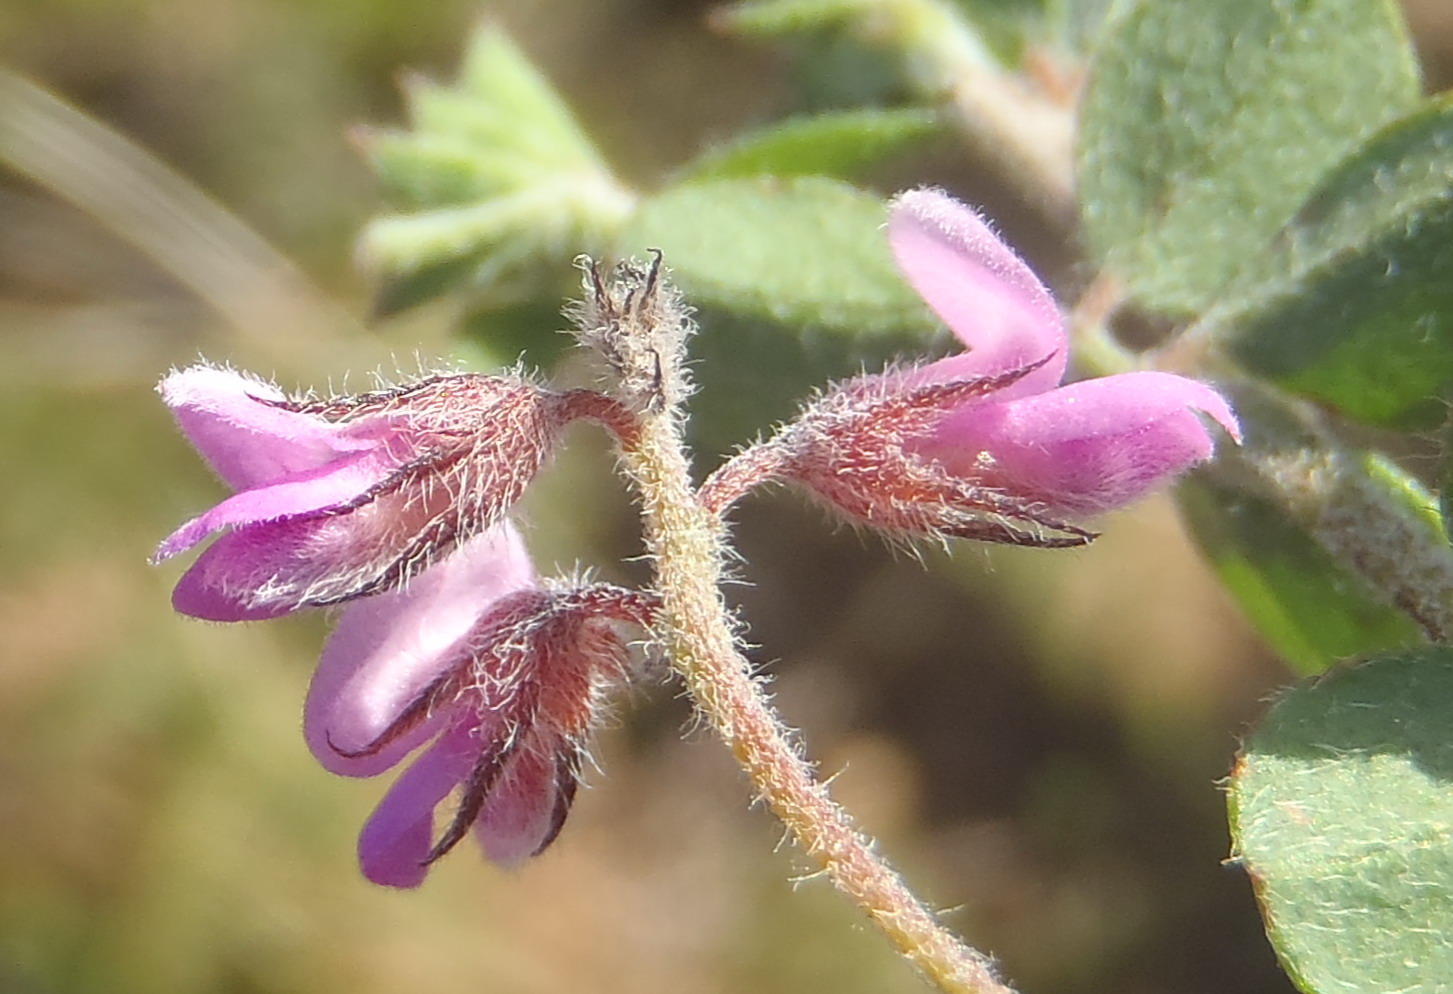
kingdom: Plantae
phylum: Tracheophyta
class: Magnoliopsida
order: Fabales
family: Fabaceae
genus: Indigofera
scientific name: Indigofera alopecuroides
